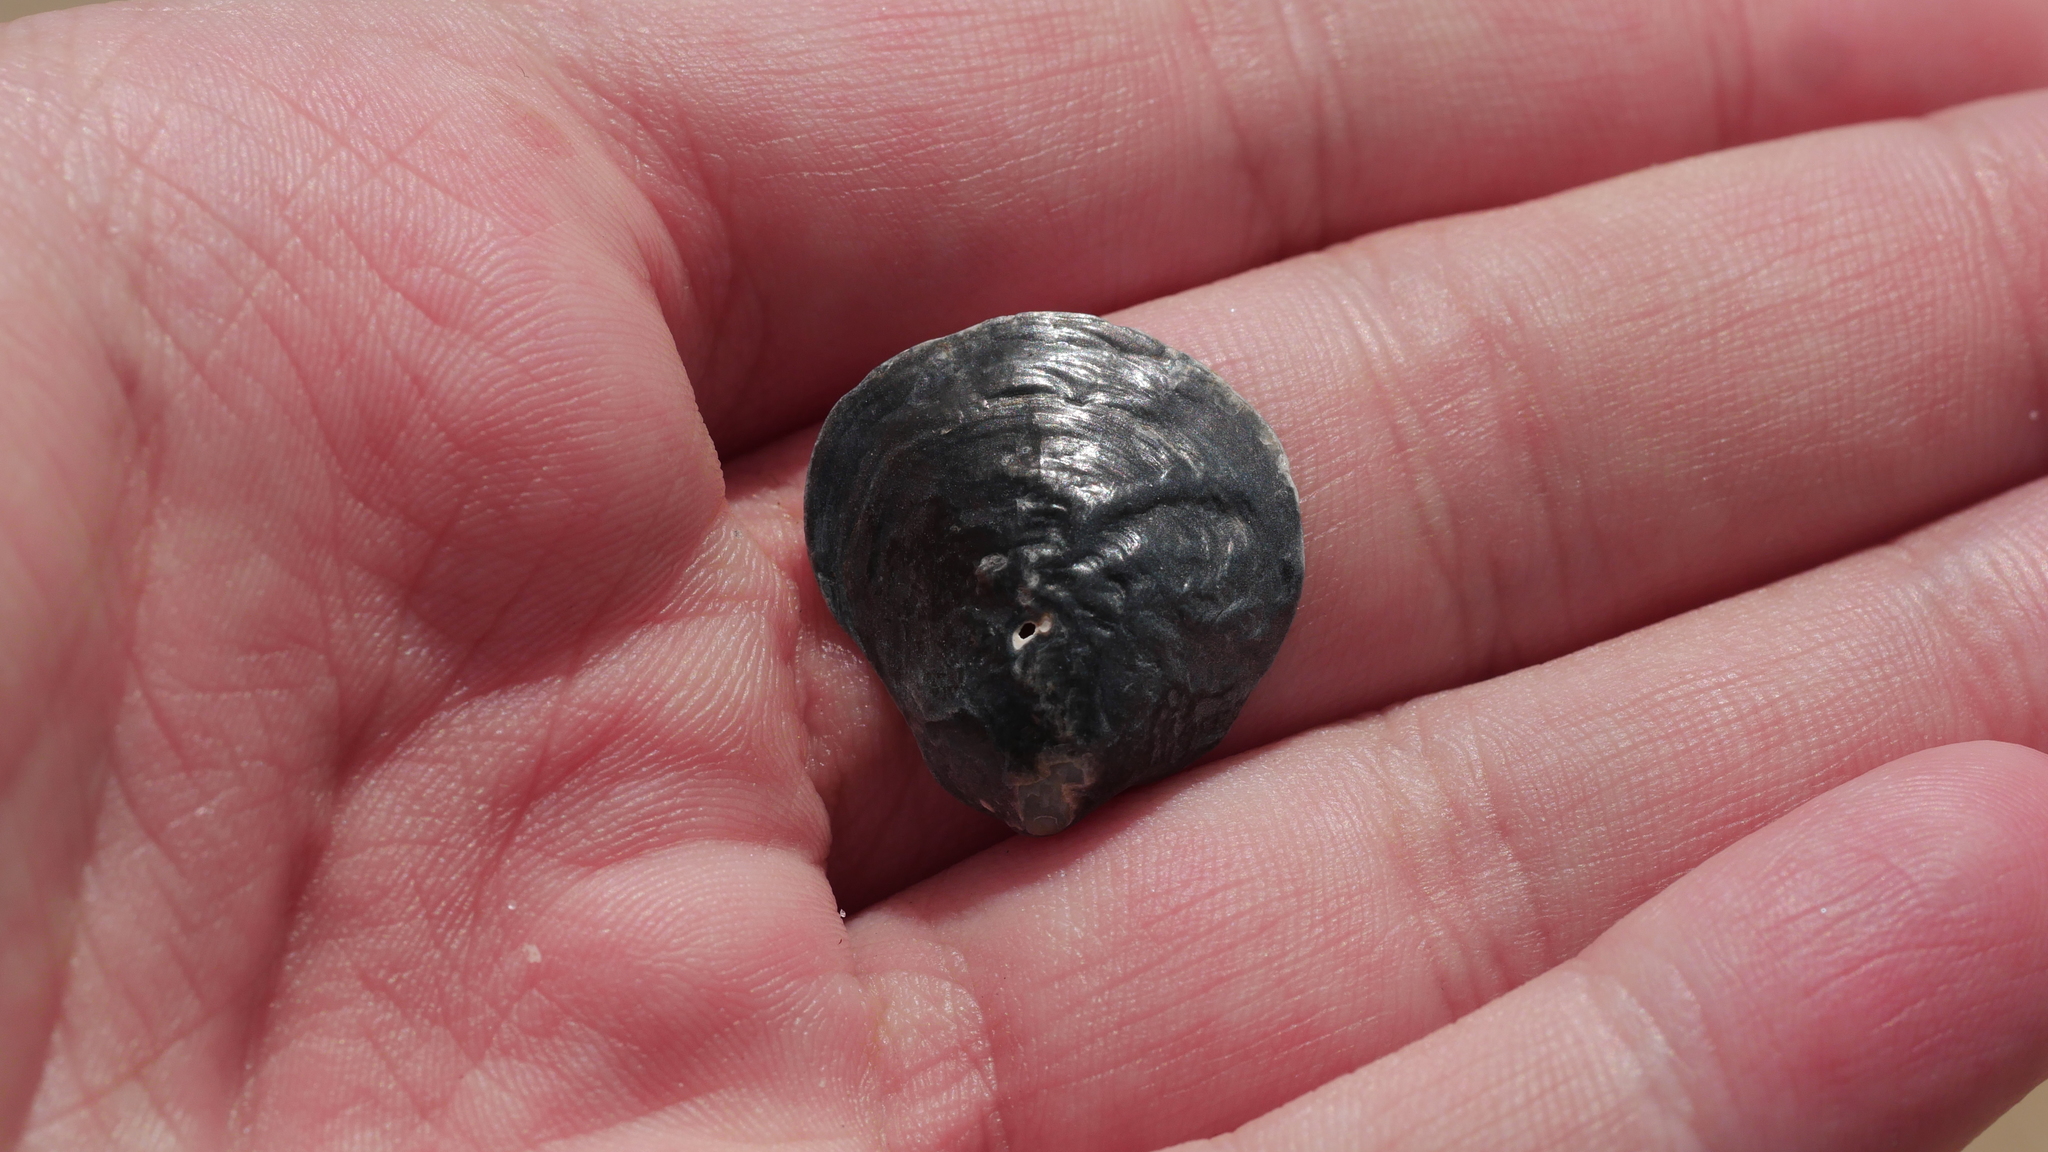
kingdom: Animalia
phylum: Mollusca
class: Bivalvia
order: Pectinida
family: Anomiidae
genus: Anomia
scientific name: Anomia simplex
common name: Common jingle shell
